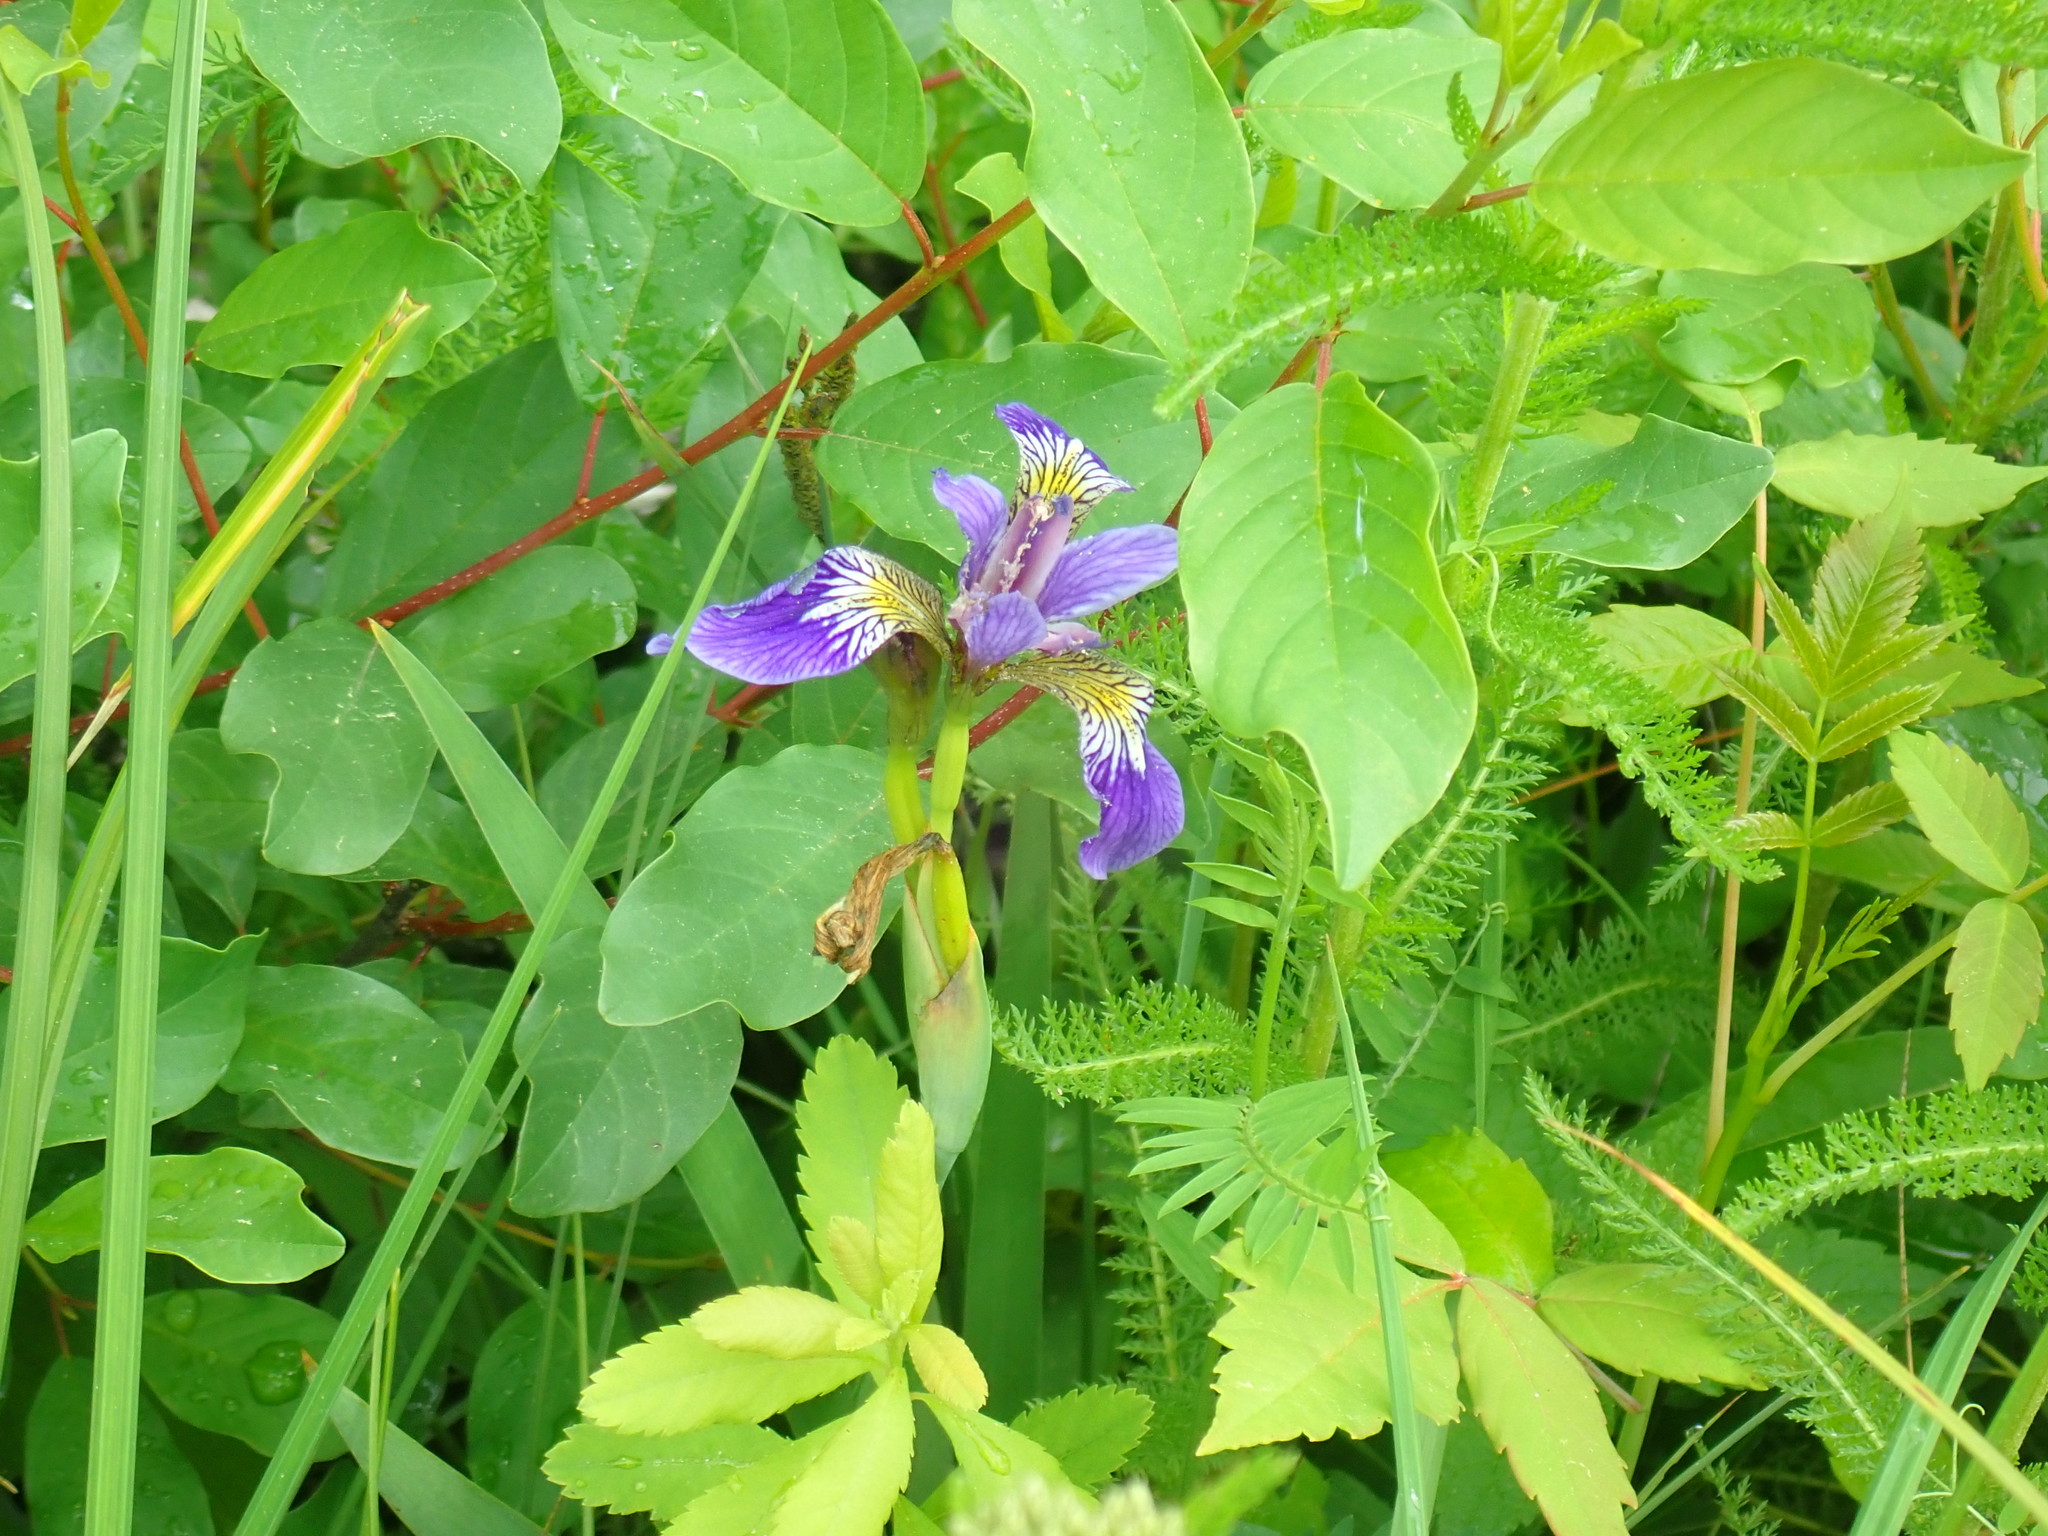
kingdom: Plantae
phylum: Tracheophyta
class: Liliopsida
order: Asparagales
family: Iridaceae
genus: Iris
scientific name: Iris versicolor
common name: Purple iris
